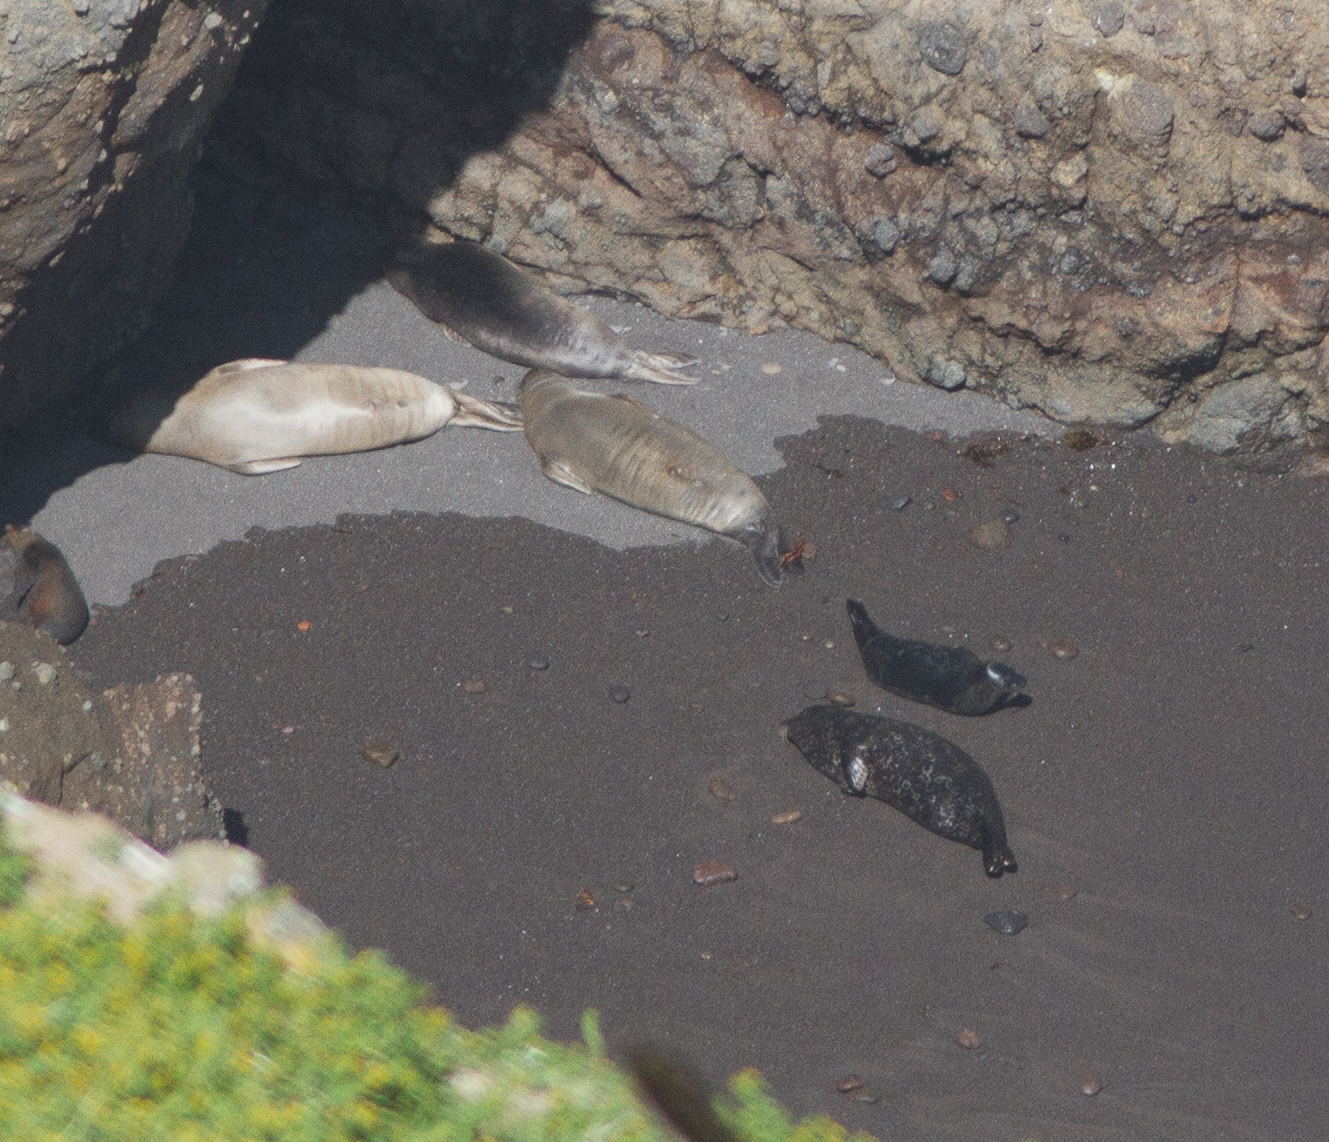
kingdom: Animalia
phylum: Chordata
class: Mammalia
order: Carnivora
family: Phocidae
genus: Mirounga
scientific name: Mirounga angustirostris
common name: Northern elephant seal
